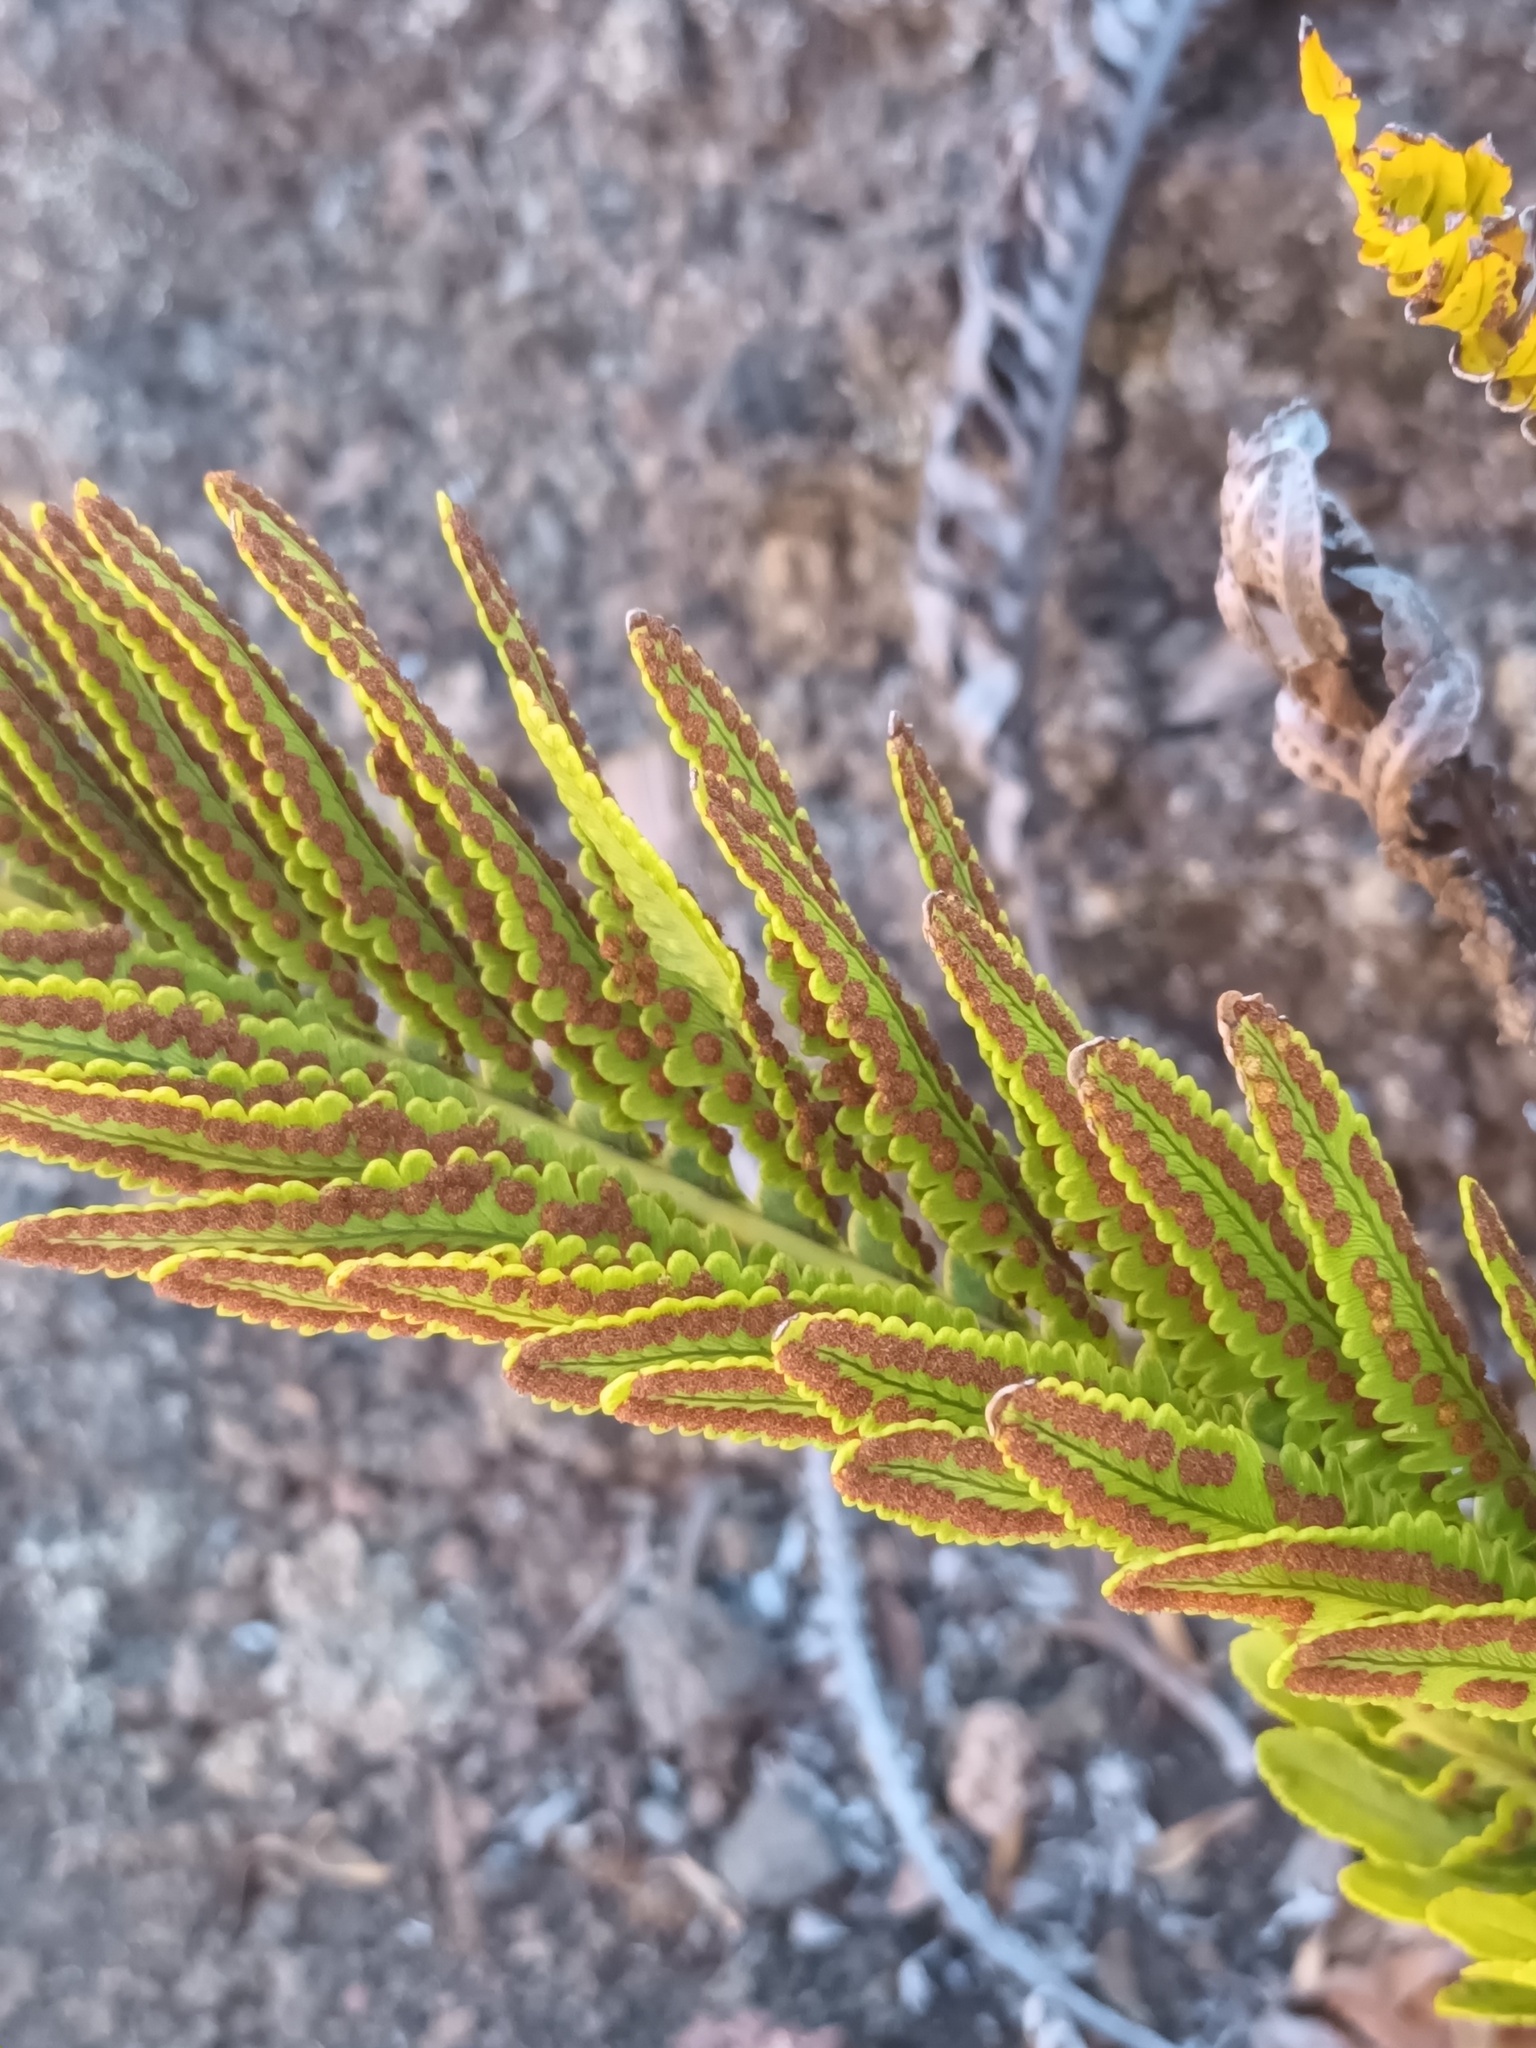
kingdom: Plantae
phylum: Tracheophyta
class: Polypodiopsida
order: Polypodiales
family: Polypodiaceae
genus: Polypodium
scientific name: Polypodium pellucidum
